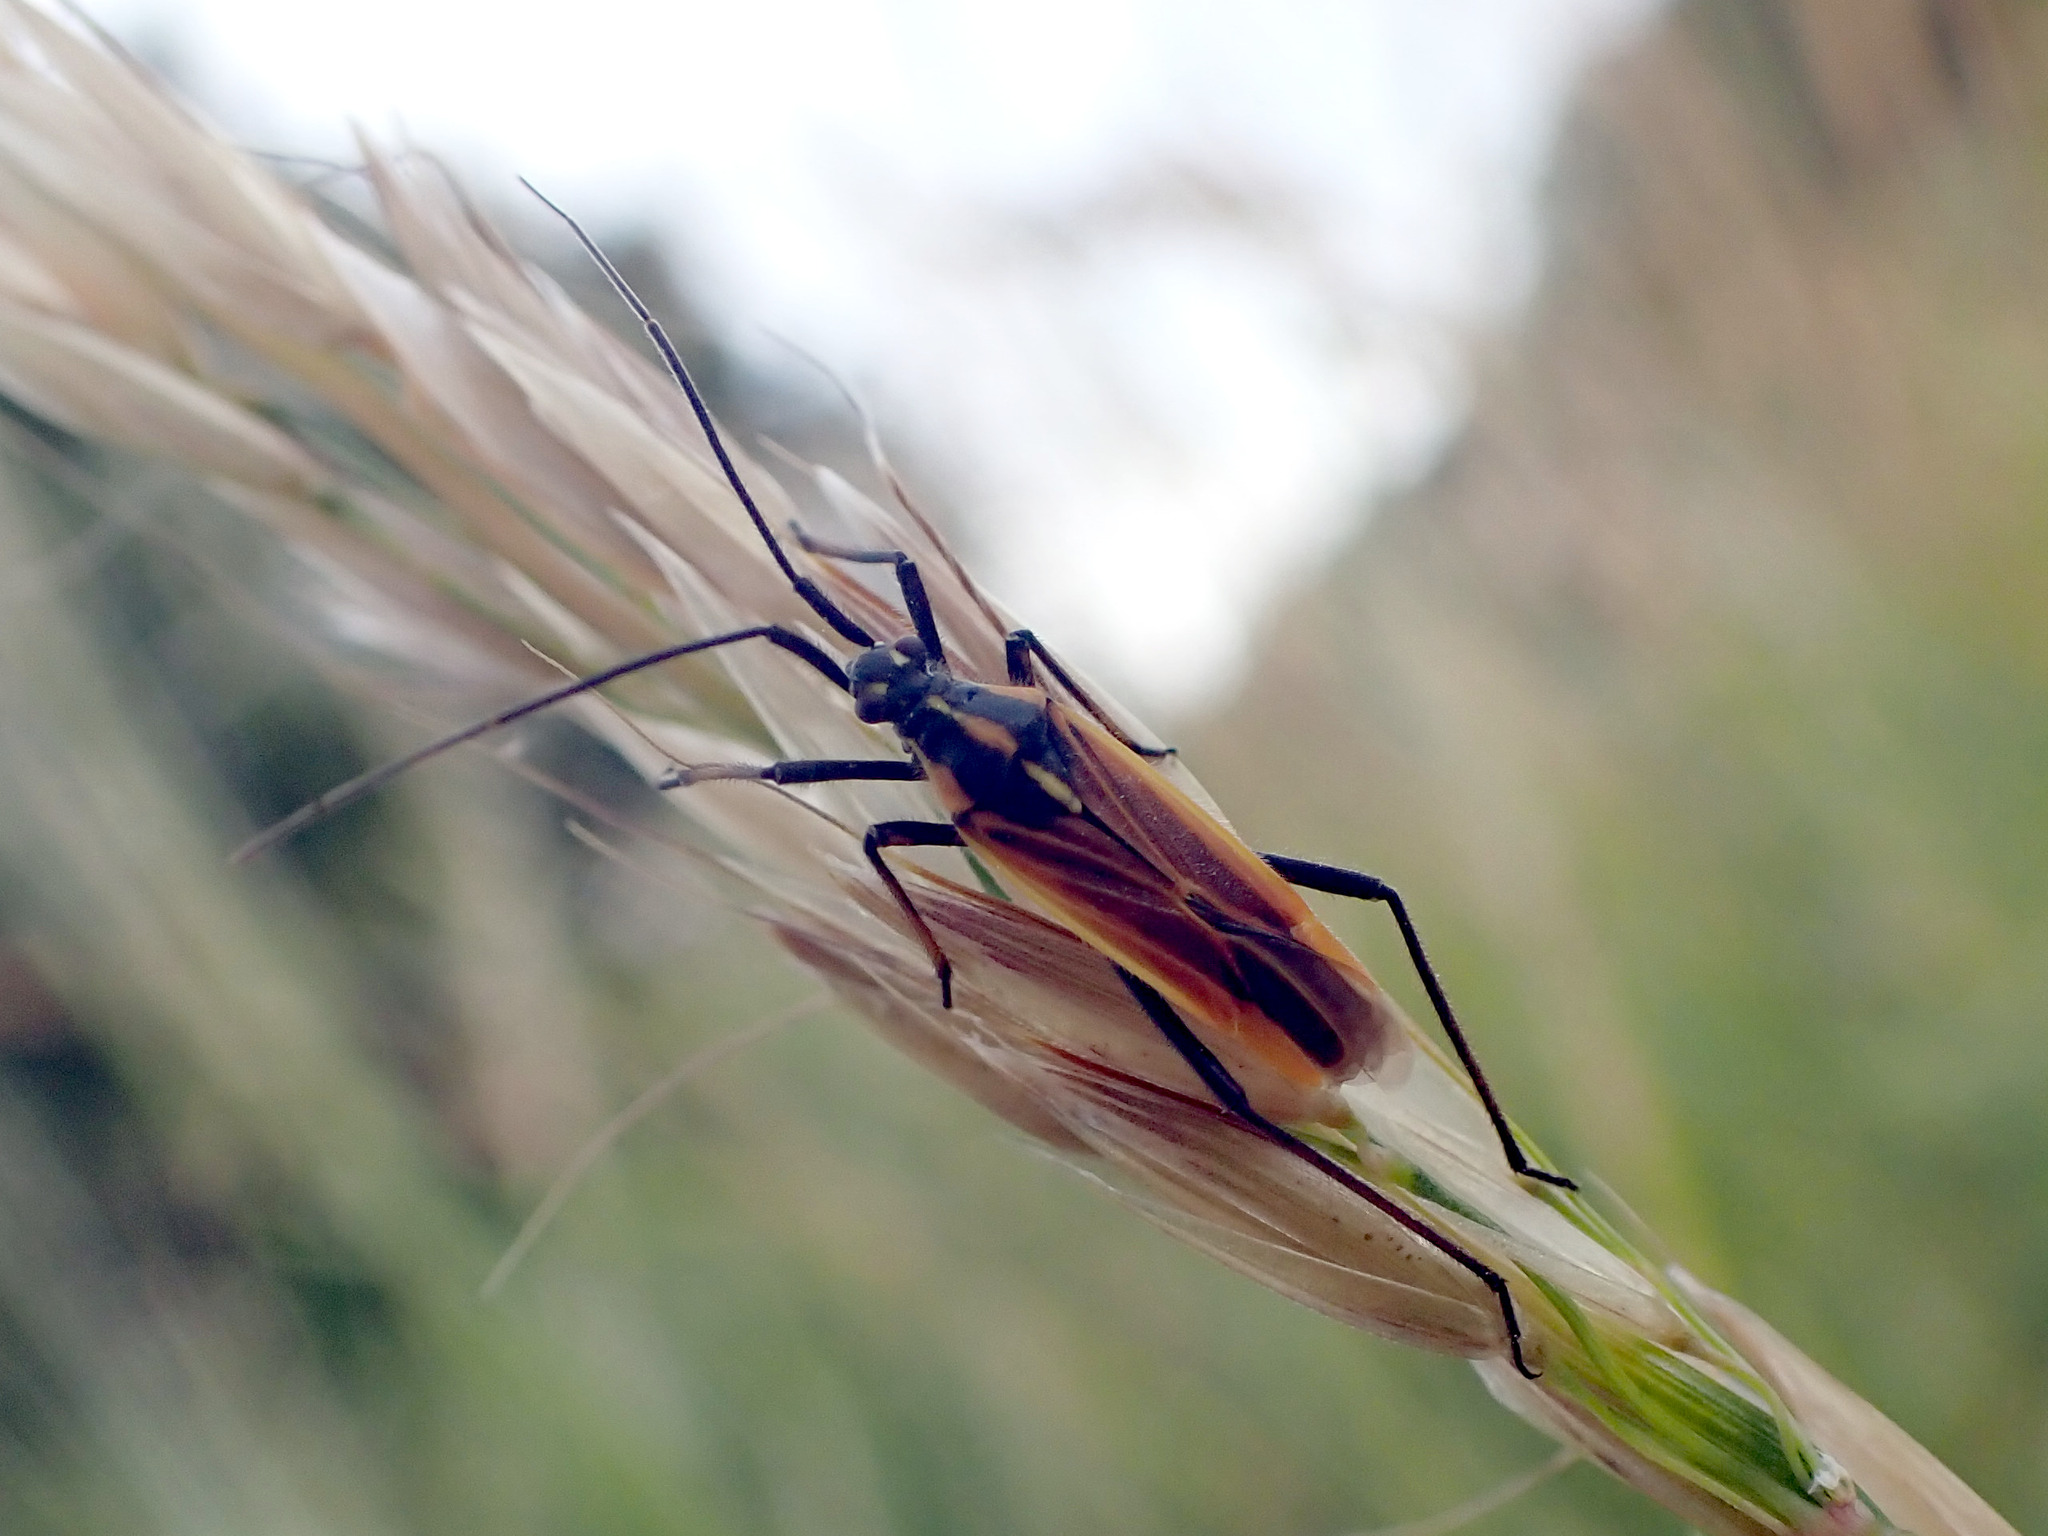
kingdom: Animalia
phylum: Arthropoda
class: Insecta
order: Hemiptera
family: Miridae
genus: Leptopterna
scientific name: Leptopterna dolabrata
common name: Meadow plant bug
